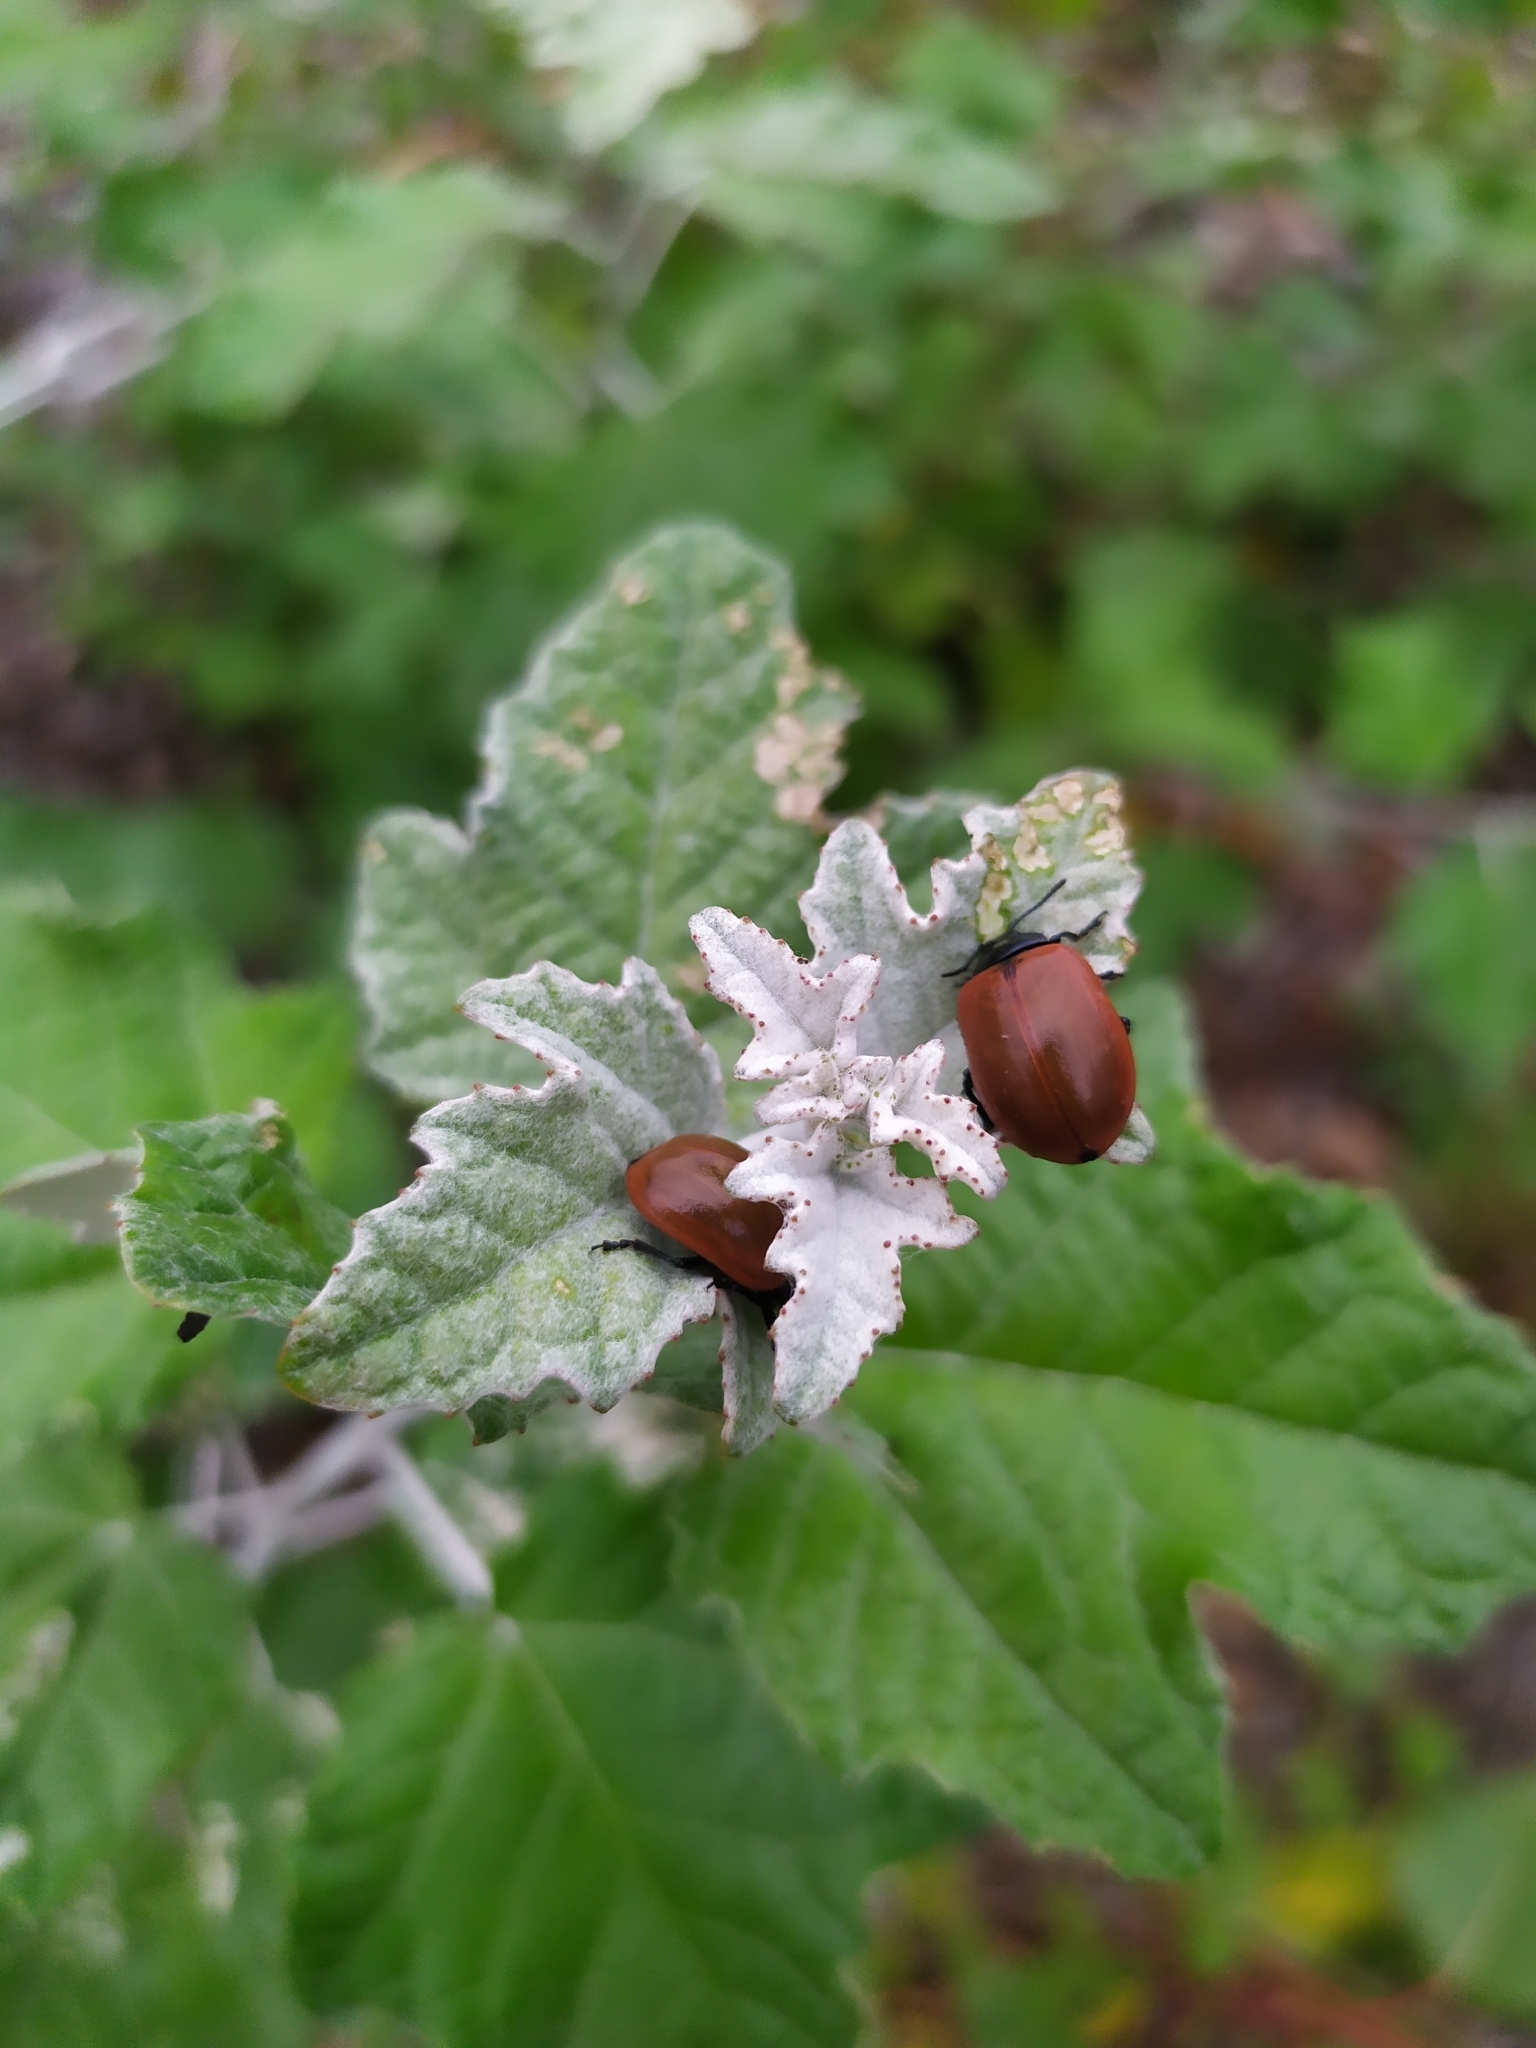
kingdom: Animalia
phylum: Arthropoda
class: Insecta
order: Coleoptera
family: Chrysomelidae
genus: Chrysomela
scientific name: Chrysomela populi
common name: Red poplar leaf beetle
